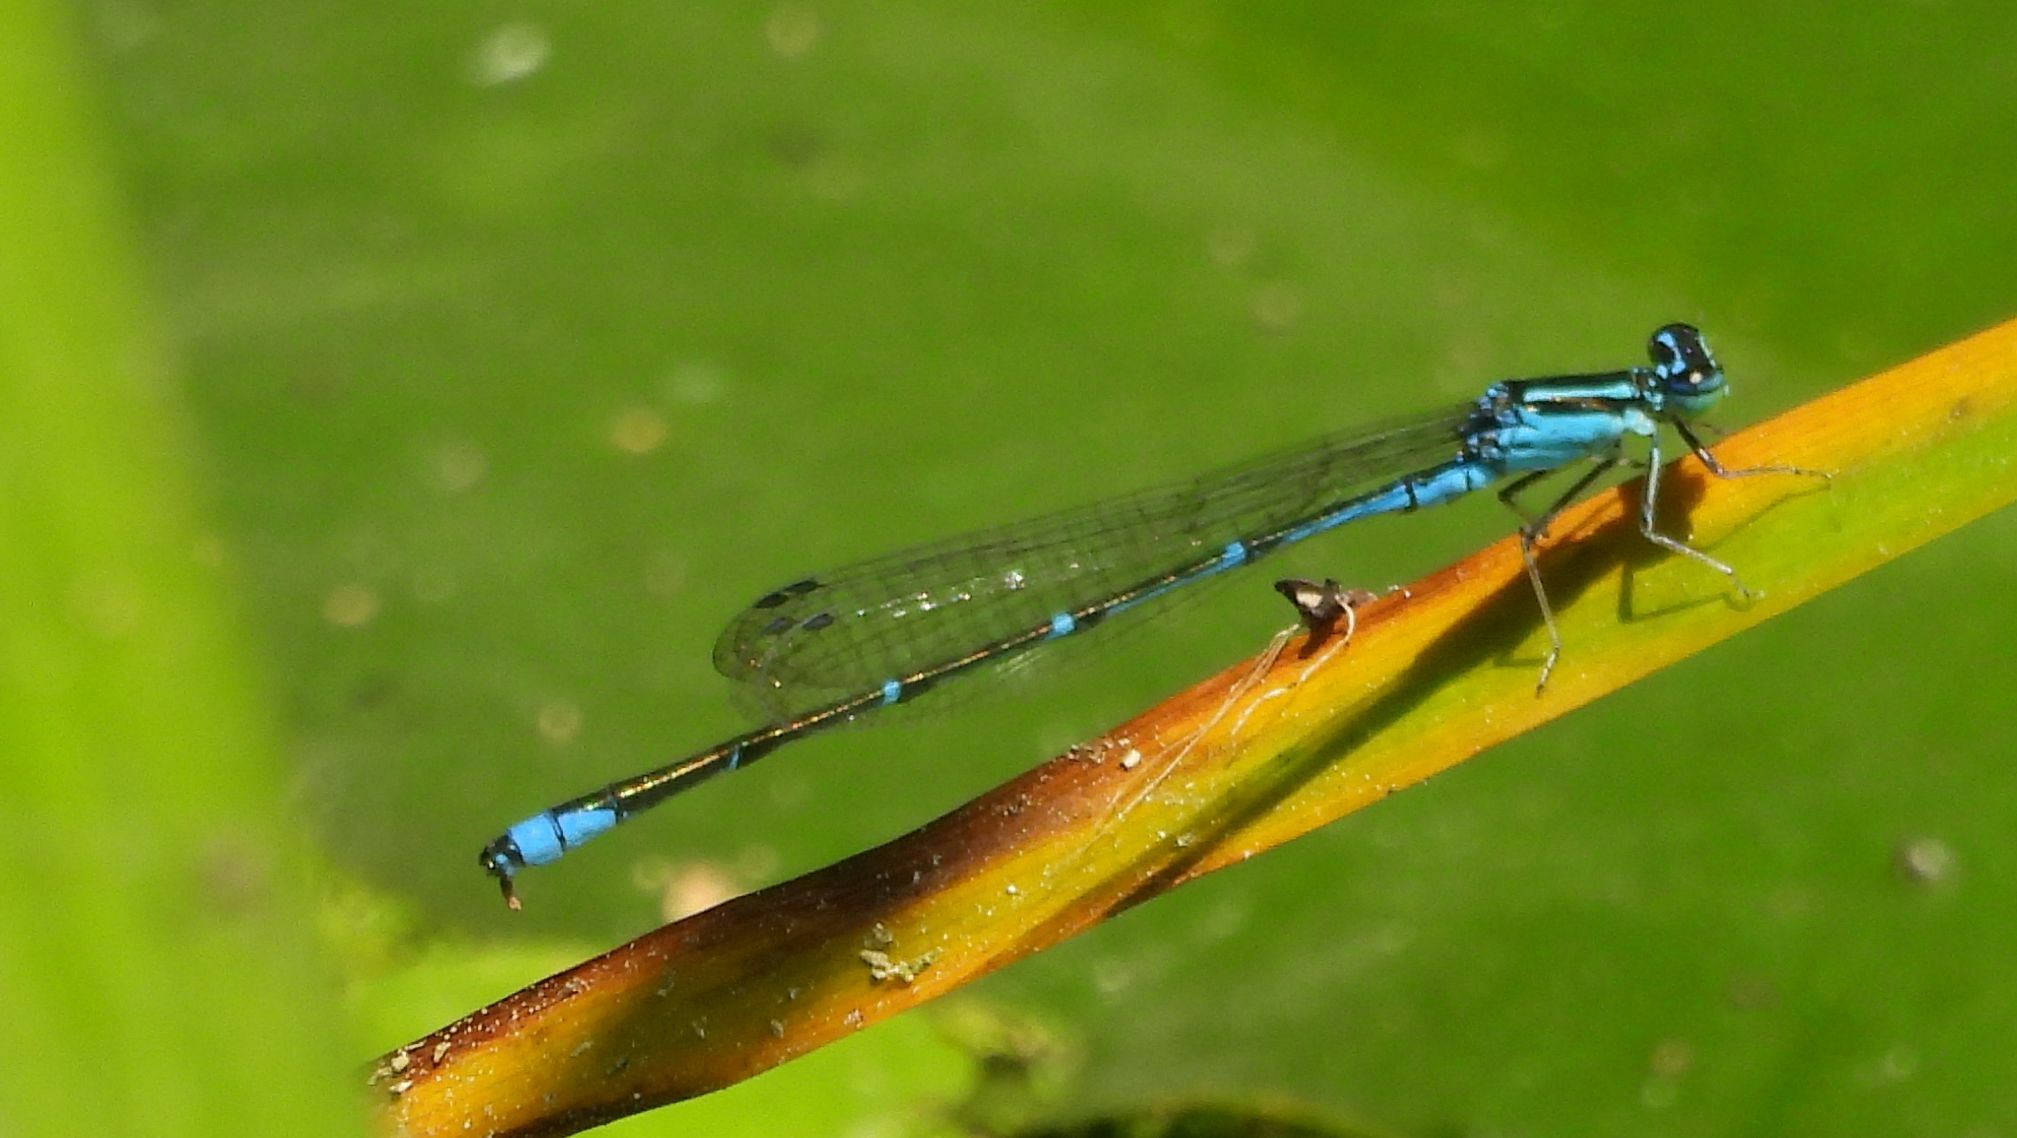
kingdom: Animalia
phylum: Arthropoda
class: Insecta
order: Odonata
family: Coenagrionidae
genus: Enallagma
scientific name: Enallagma exsulans
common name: Stream bluet
